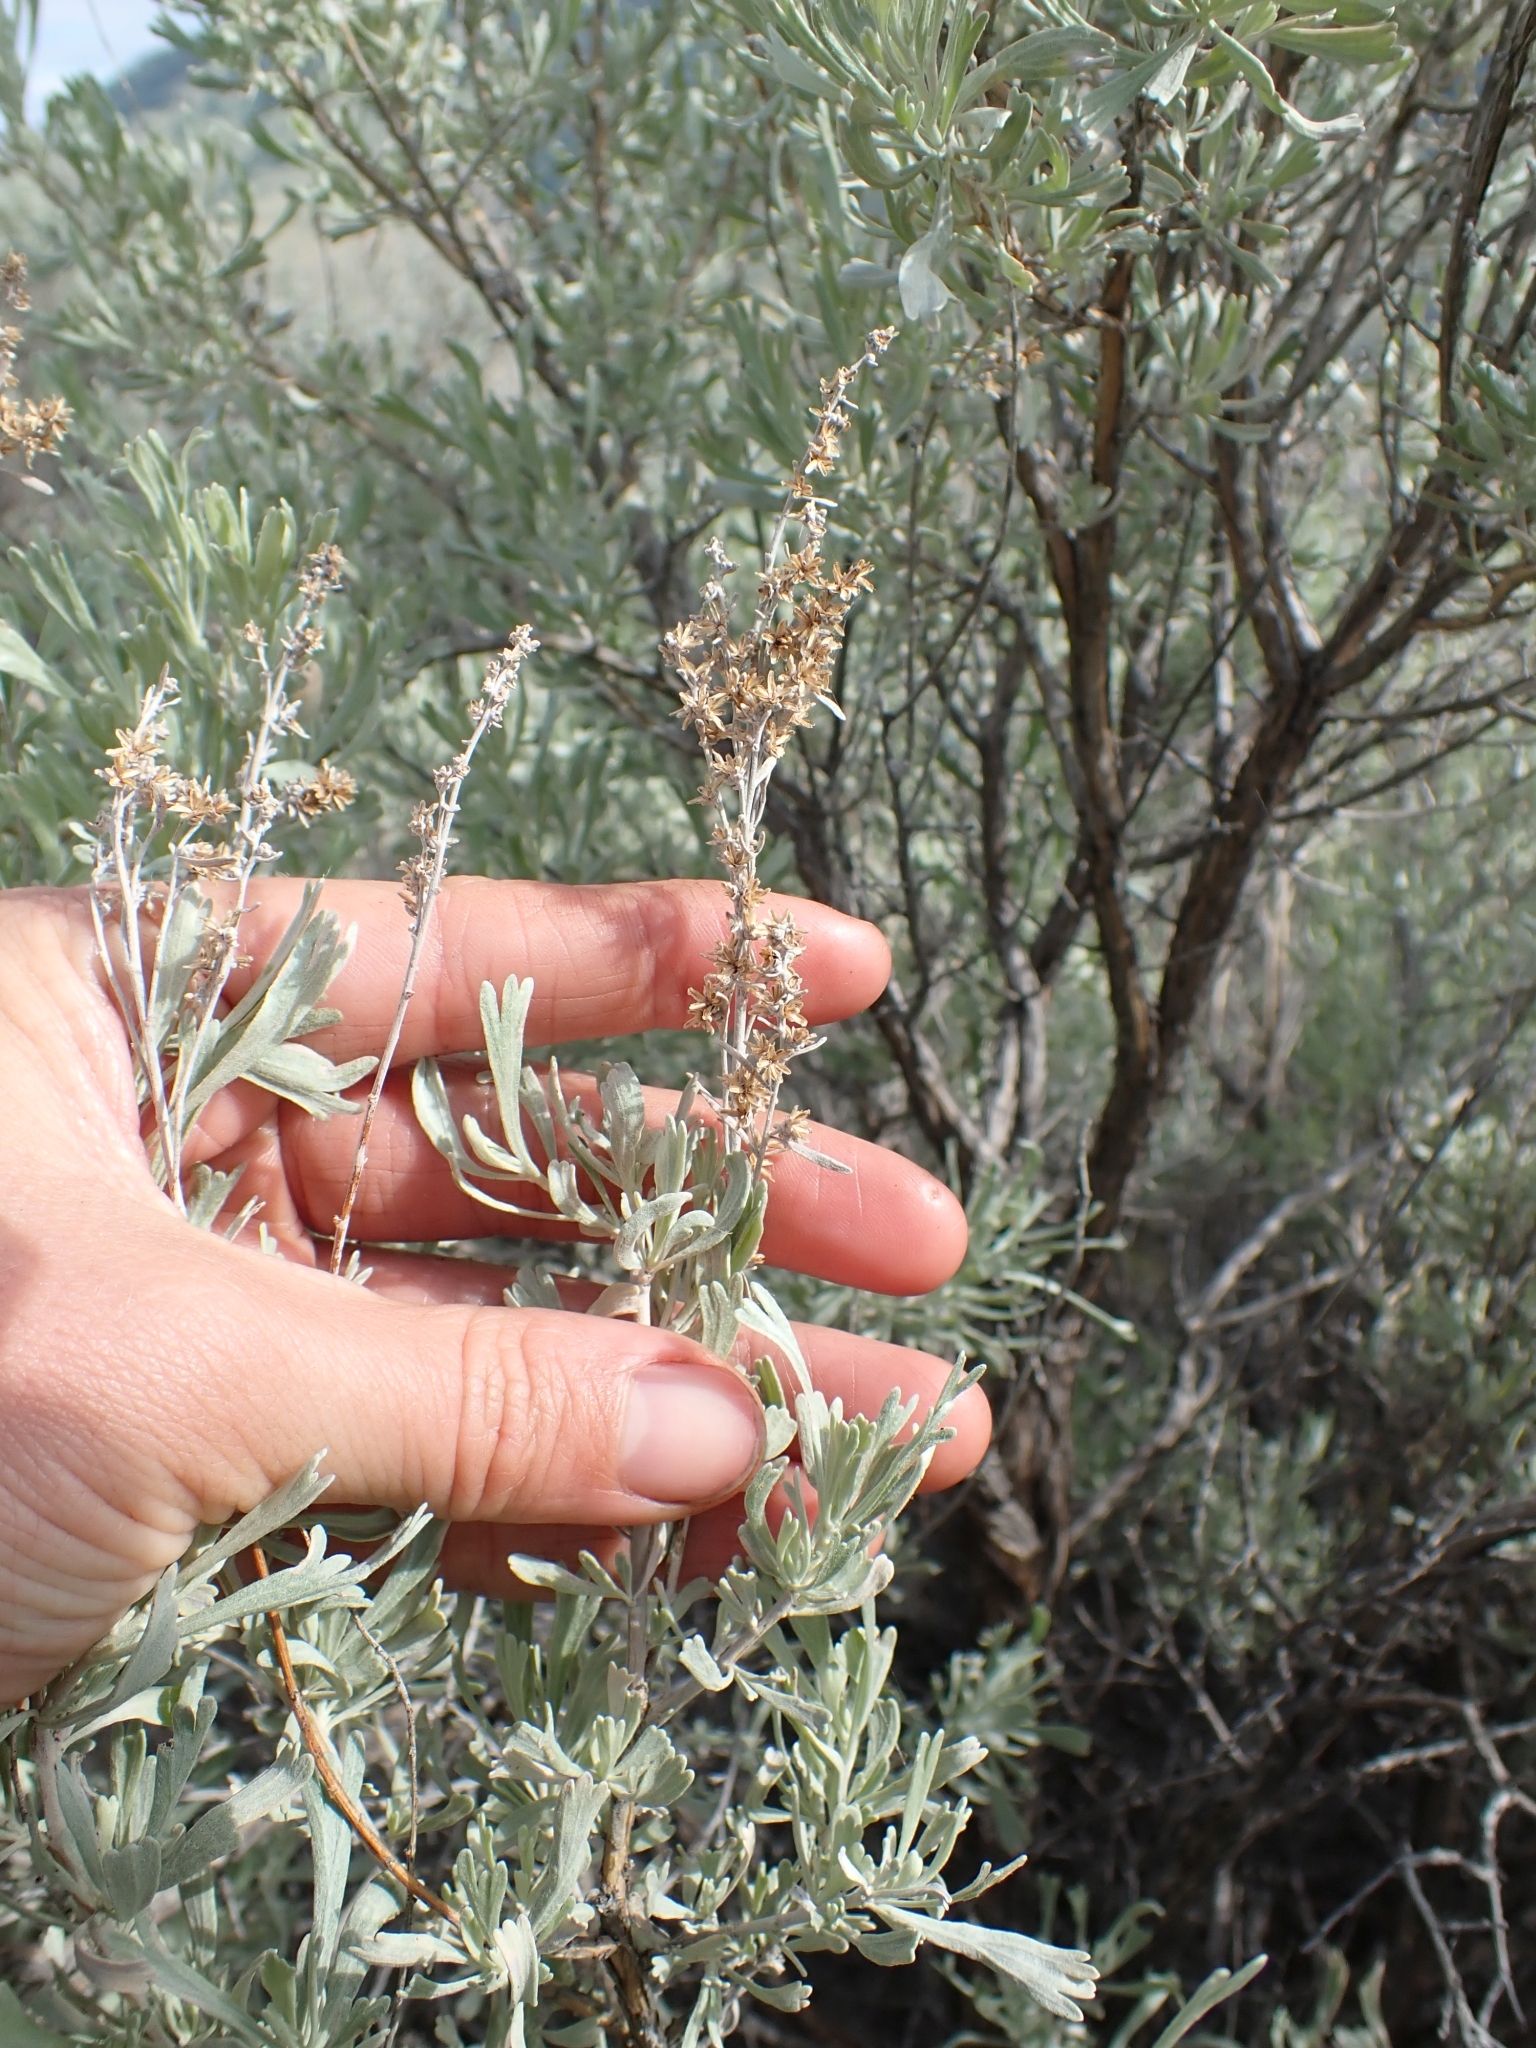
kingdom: Plantae
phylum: Tracheophyta
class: Magnoliopsida
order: Asterales
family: Asteraceae
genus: Artemisia
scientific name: Artemisia tridentata
